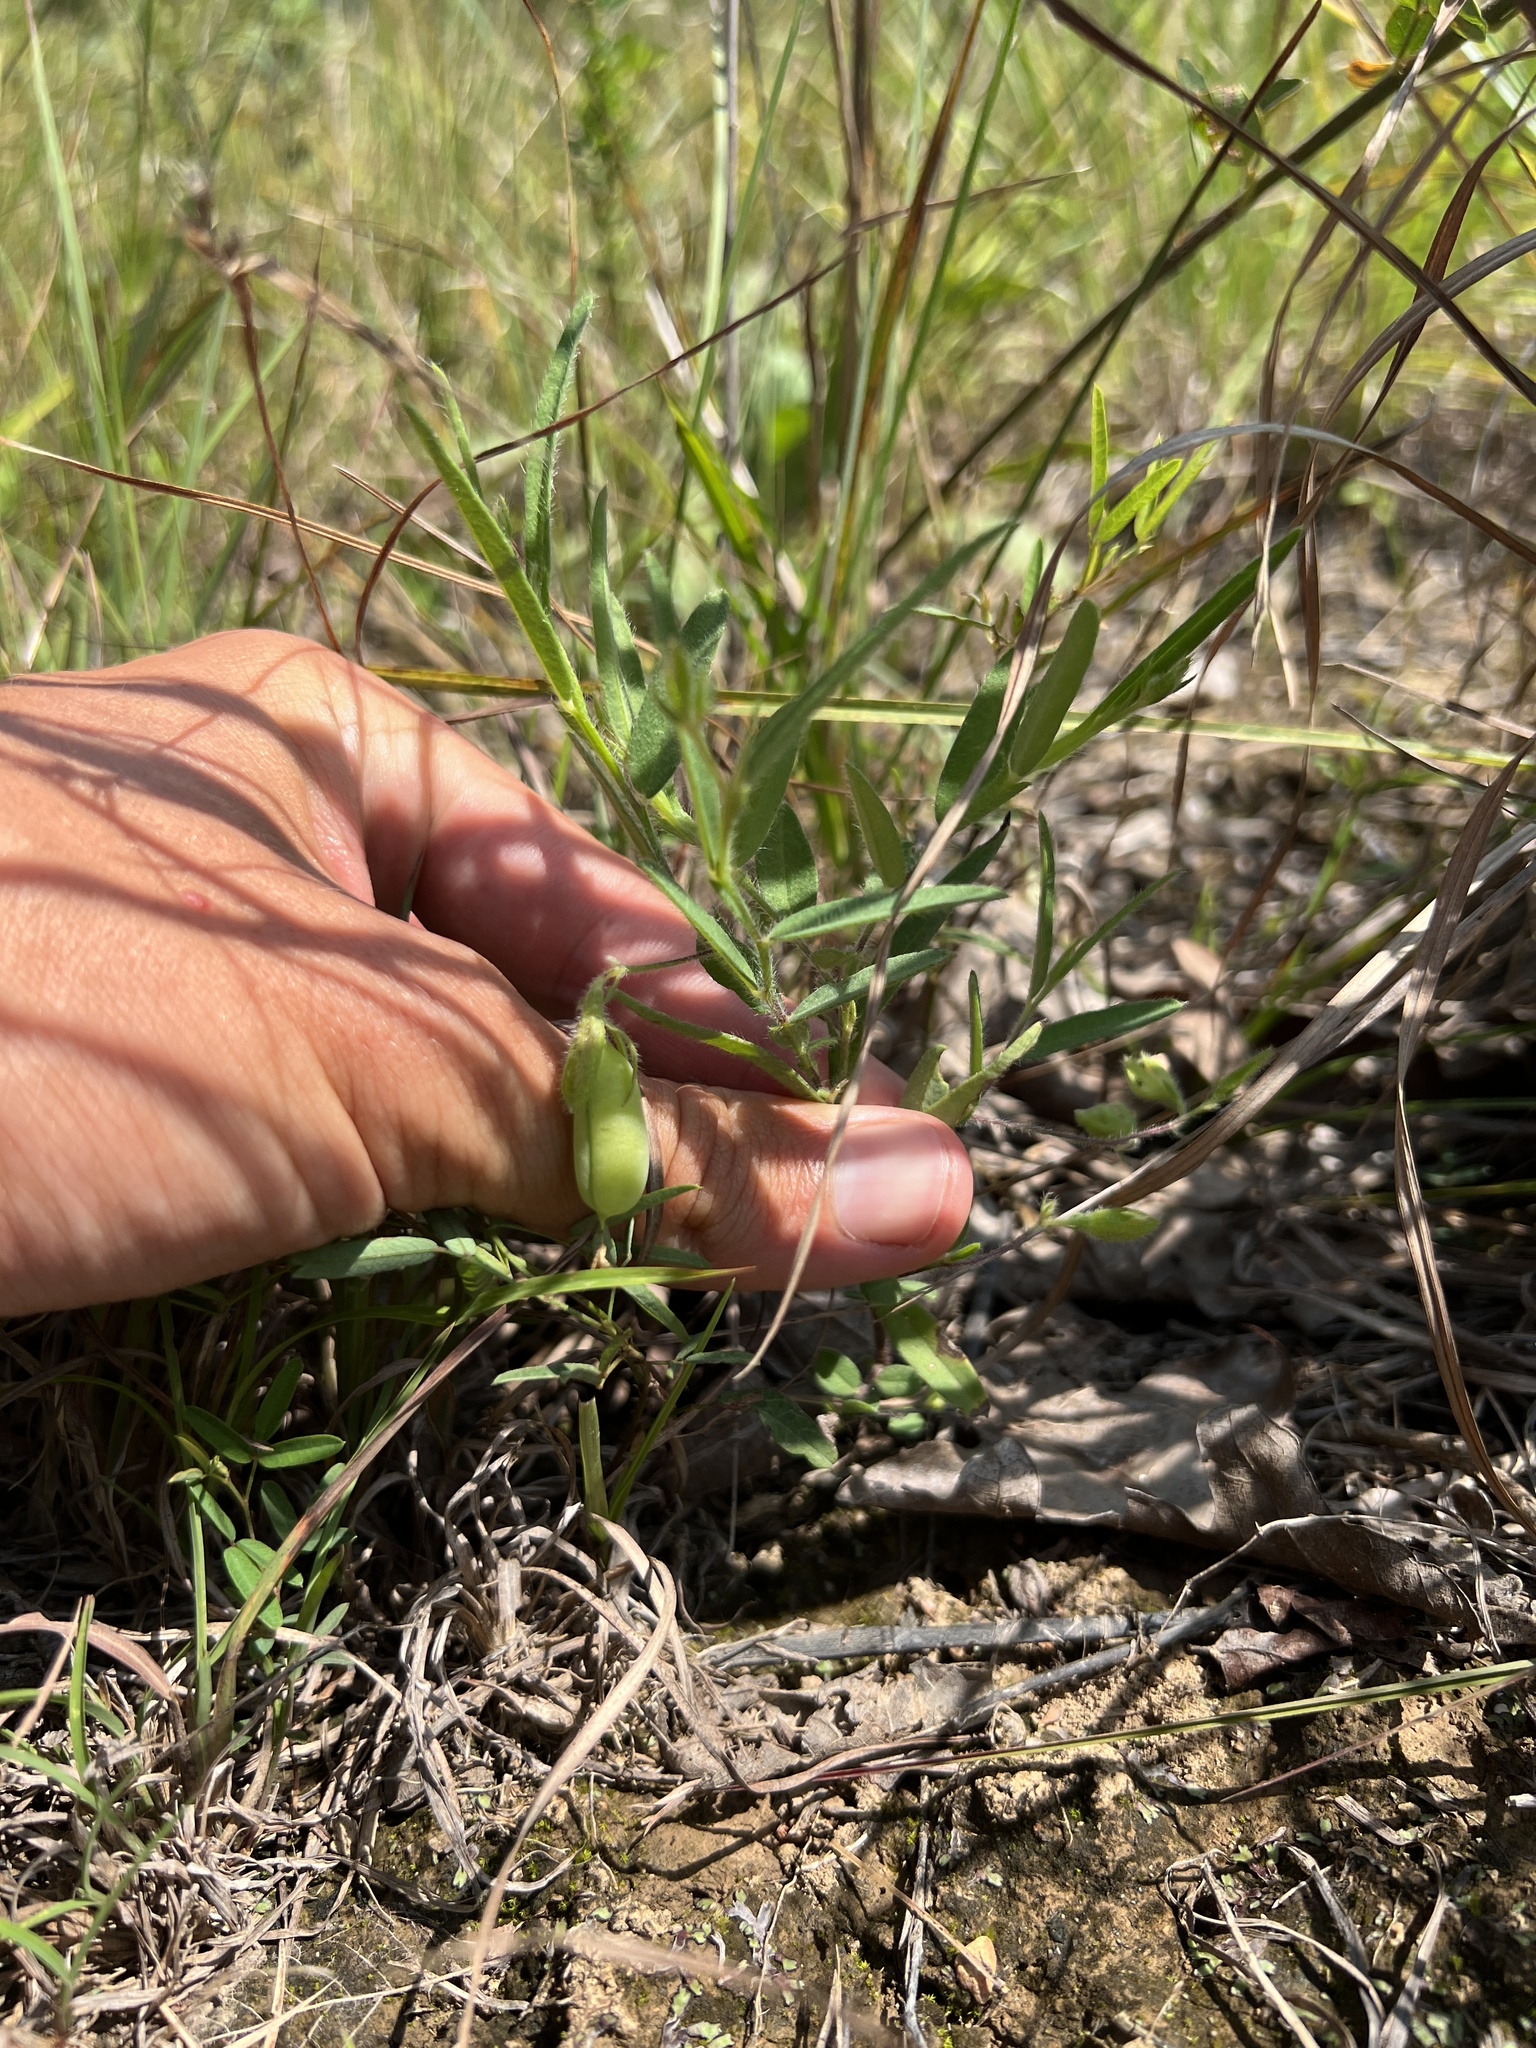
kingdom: Plantae
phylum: Tracheophyta
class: Magnoliopsida
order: Fabales
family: Fabaceae
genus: Crotalaria
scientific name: Crotalaria sagittalis
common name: Arrowhead rattlebox
